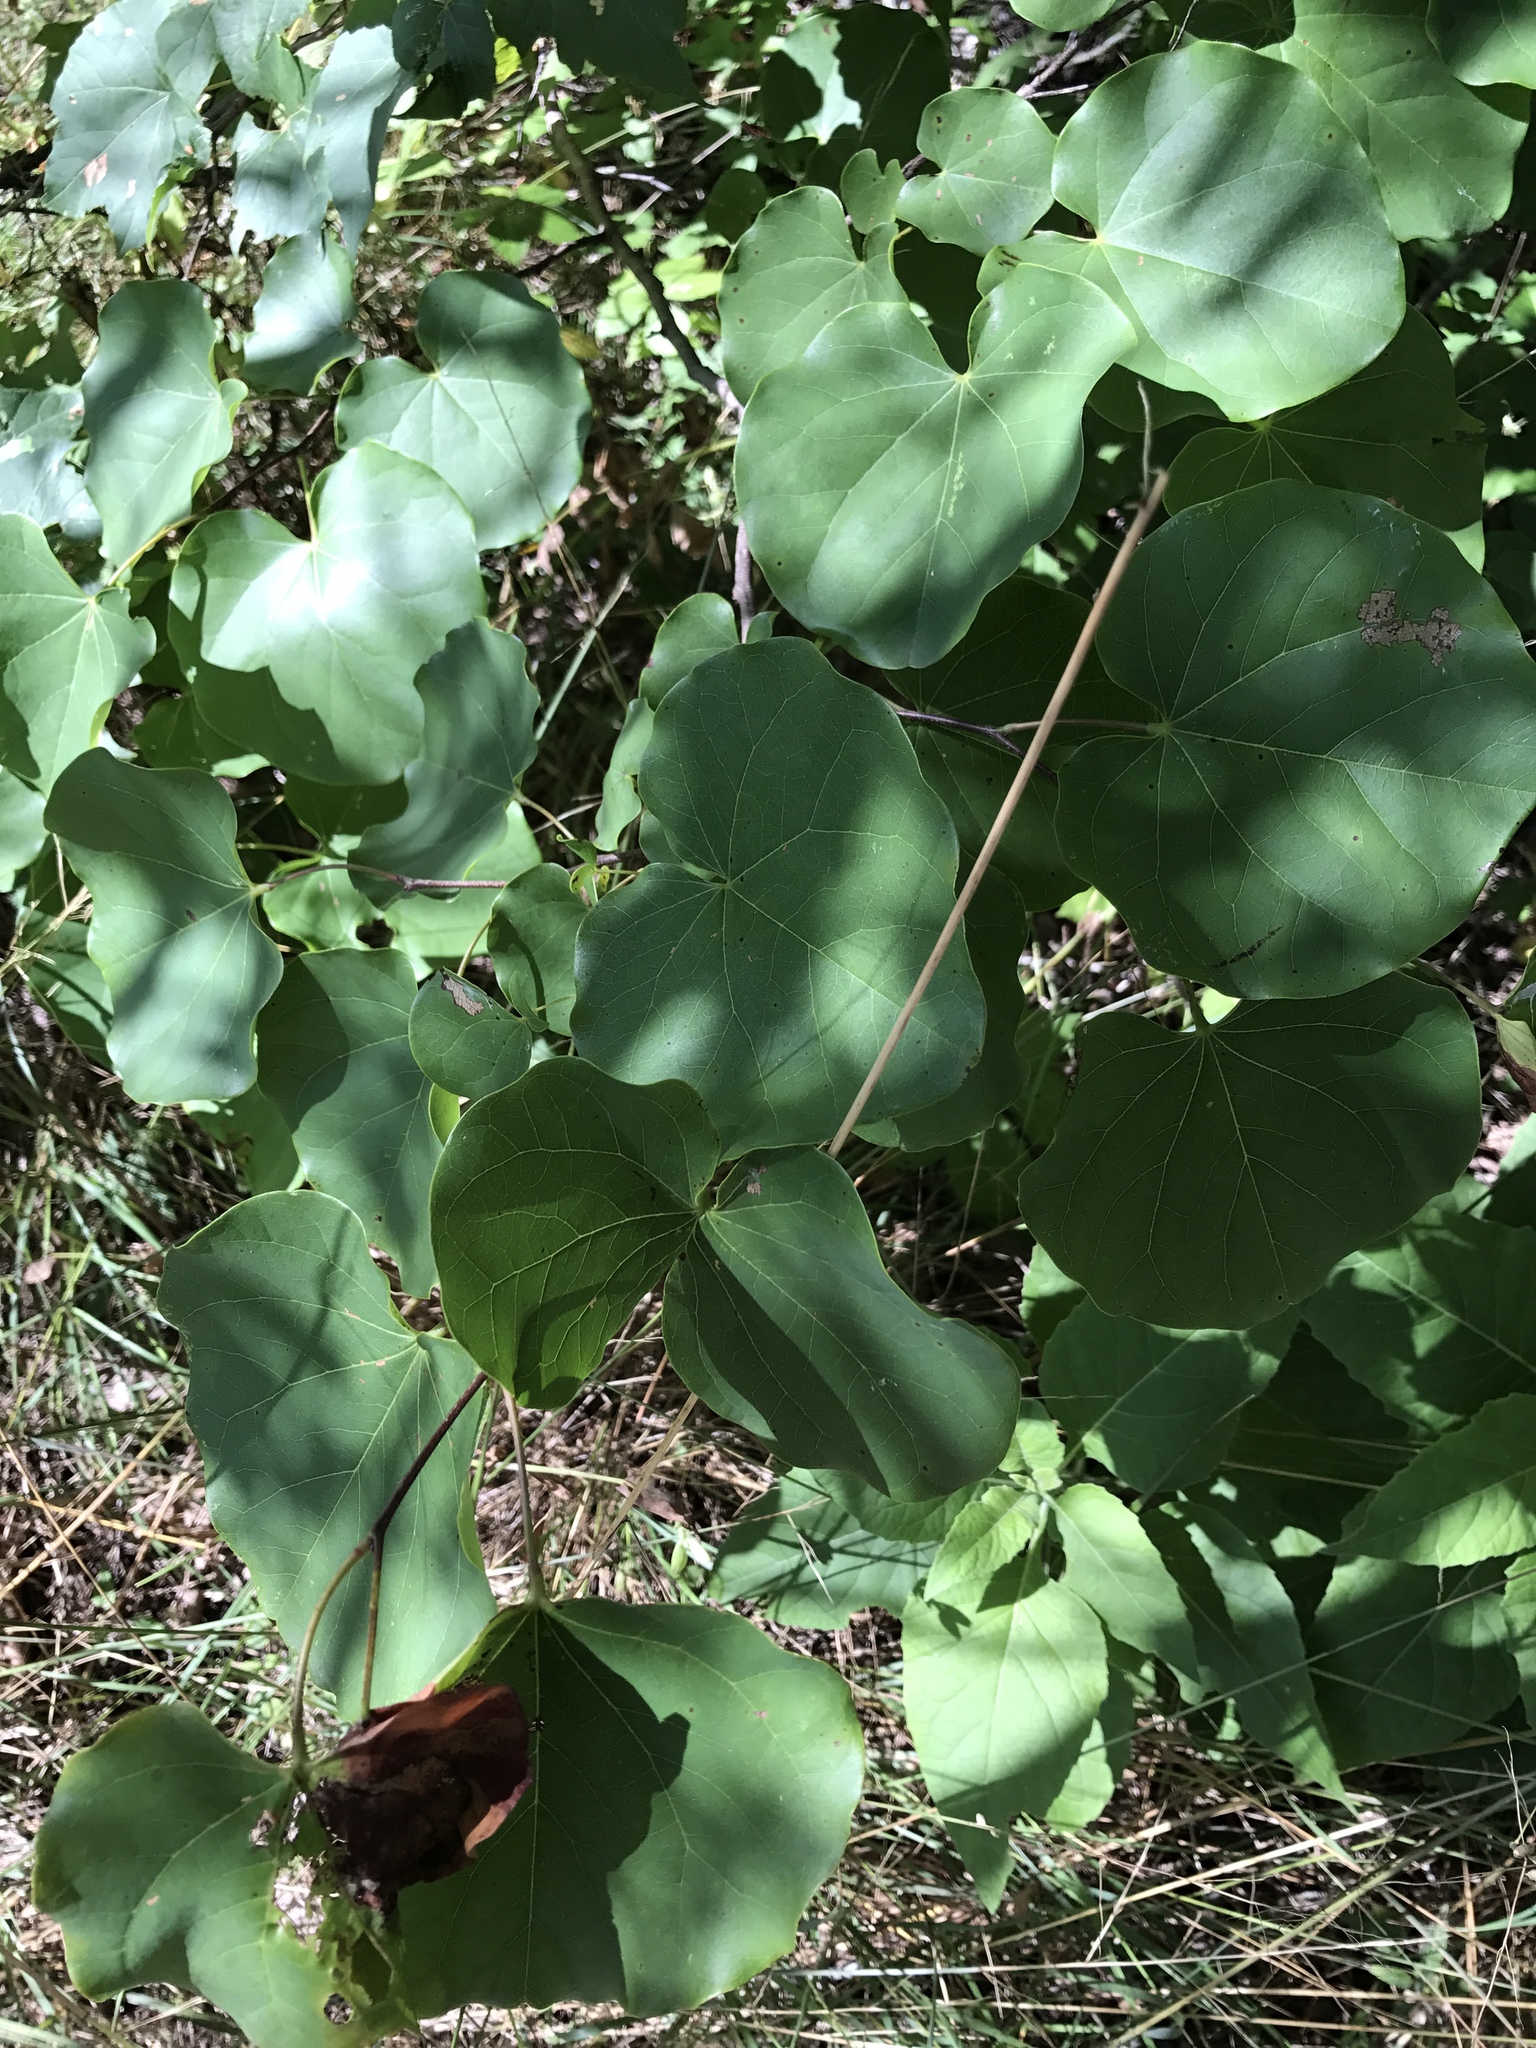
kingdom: Plantae
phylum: Tracheophyta
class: Magnoliopsida
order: Fabales
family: Fabaceae
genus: Cercis
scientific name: Cercis canadensis
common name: Eastern redbud
